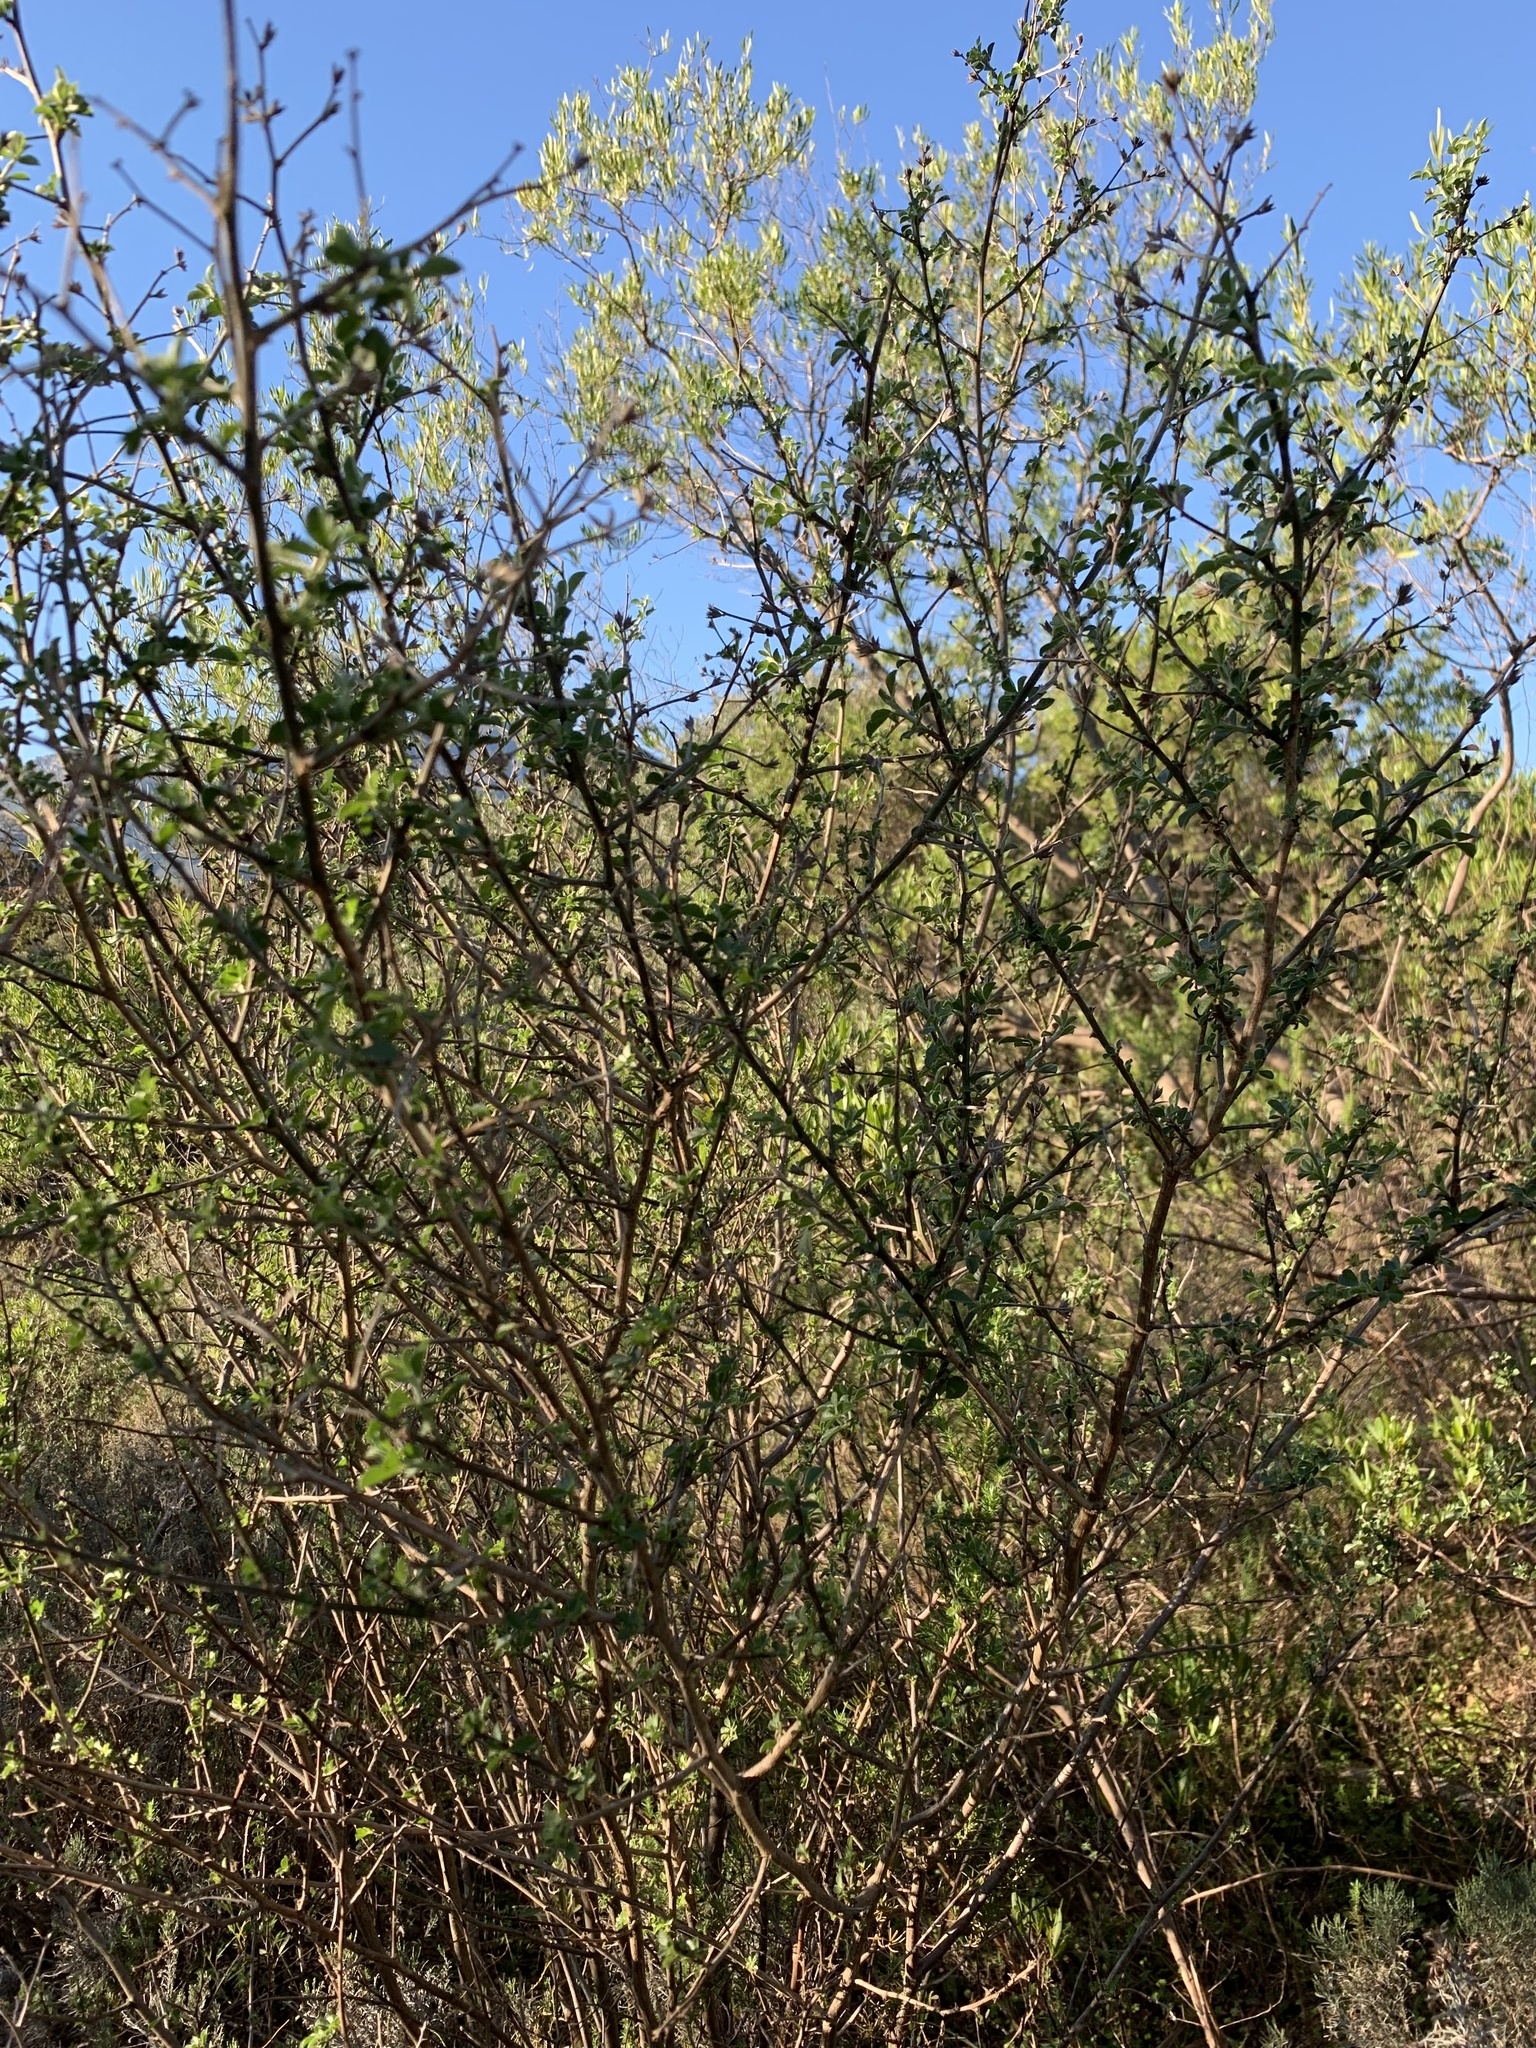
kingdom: Plantae
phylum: Tracheophyta
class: Magnoliopsida
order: Fabales
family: Fabaceae
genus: Psoralea
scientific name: Psoralea hirta
